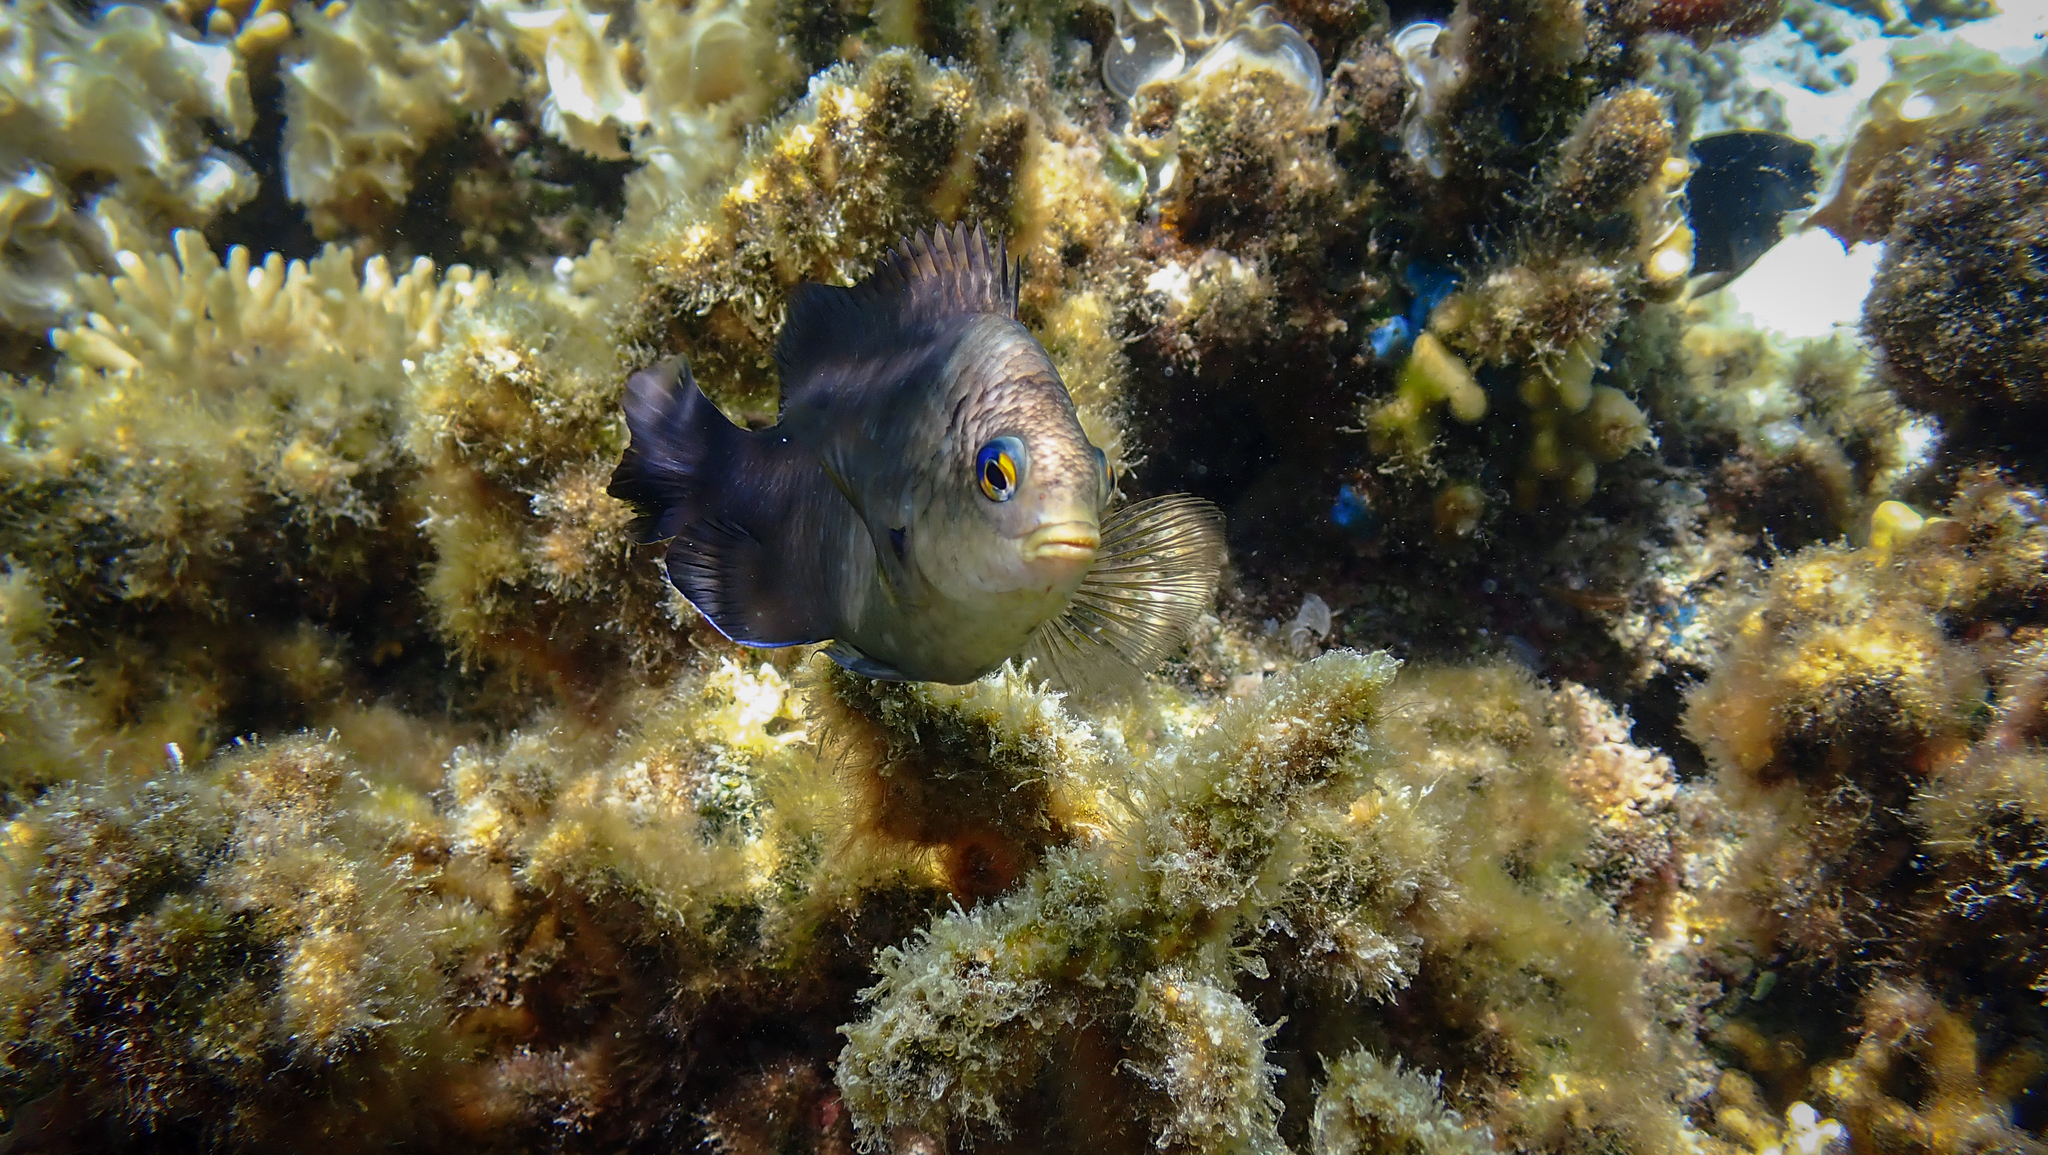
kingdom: Animalia
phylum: Chordata
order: Perciformes
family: Pomacentridae
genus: Stegastes
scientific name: Stegastes nigricans
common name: Dusky gregory
